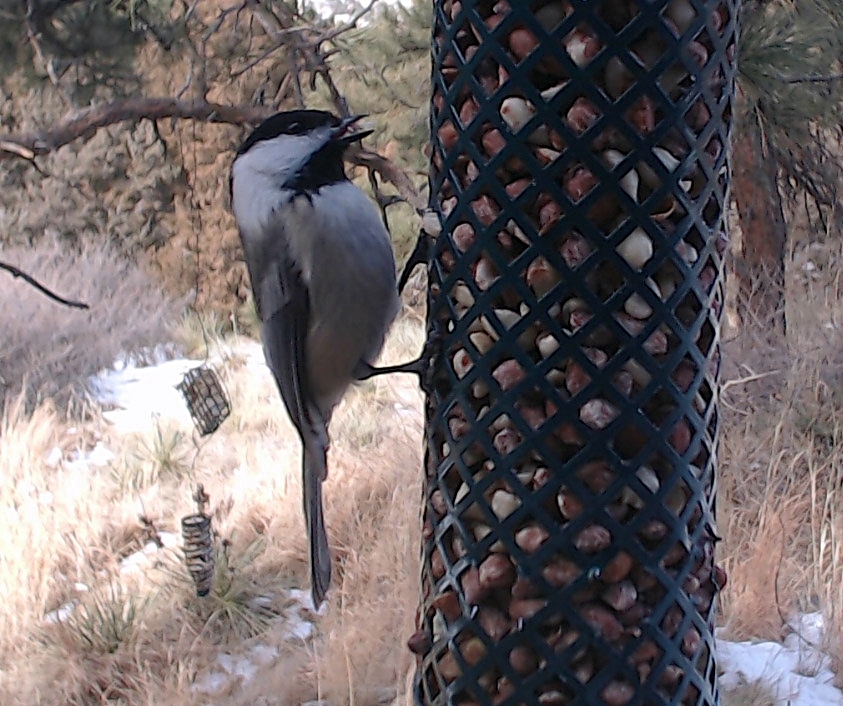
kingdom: Animalia
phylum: Chordata
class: Aves
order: Passeriformes
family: Paridae
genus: Poecile
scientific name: Poecile atricapillus
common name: Black-capped chickadee
